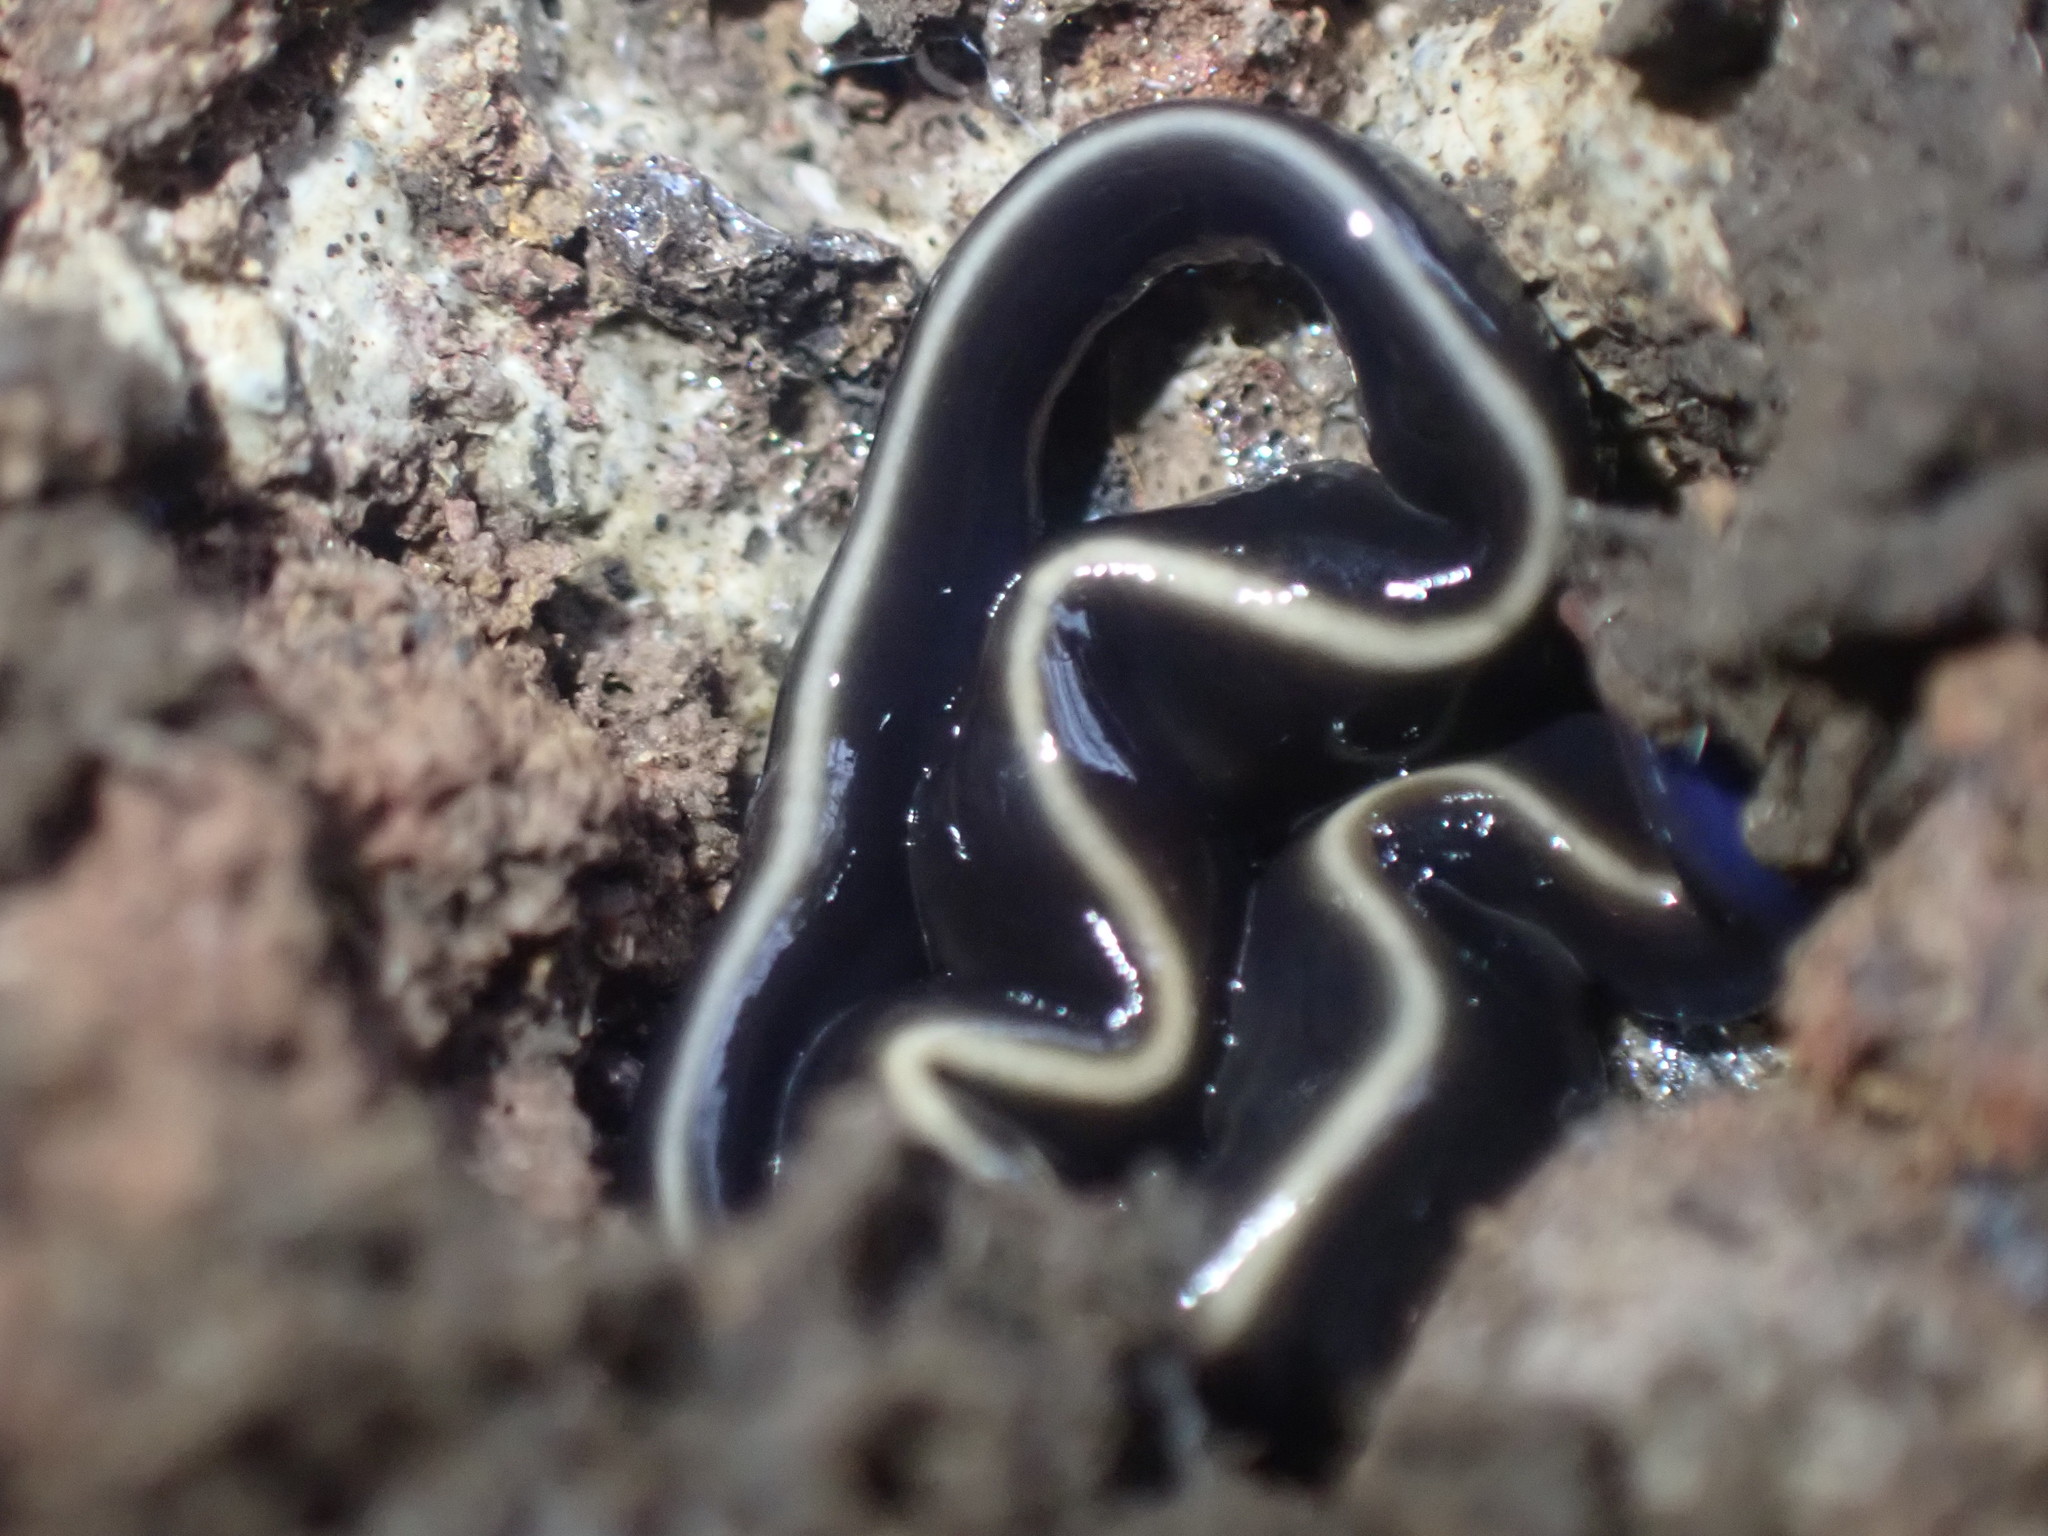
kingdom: Animalia
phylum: Platyhelminthes
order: Tricladida
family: Geoplanidae
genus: Caenoplana
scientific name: Caenoplana coerulea
